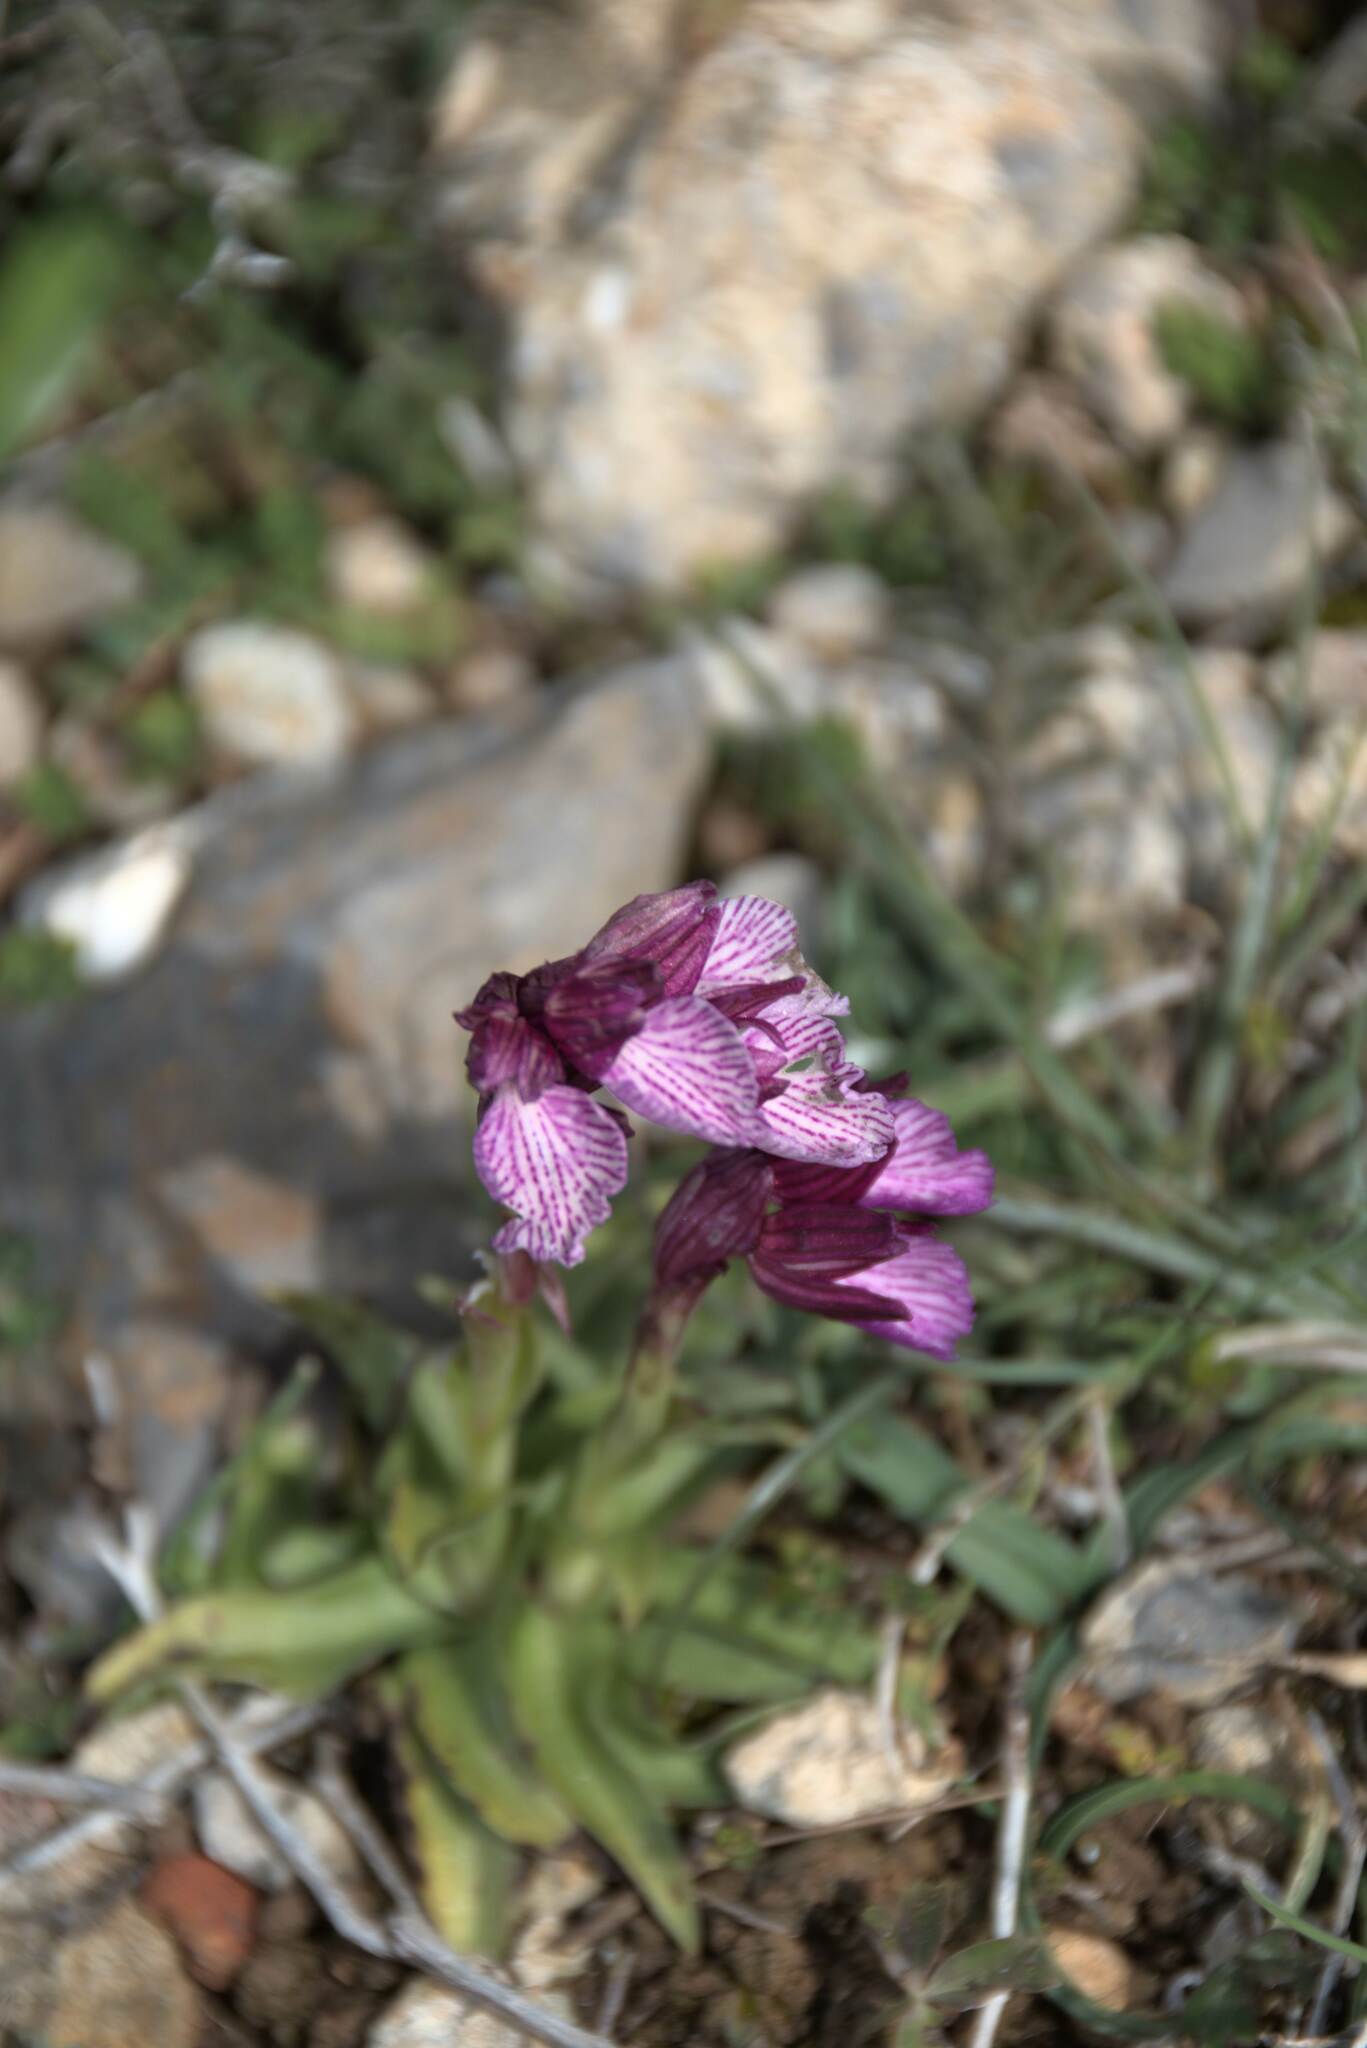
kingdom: Plantae
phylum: Tracheophyta
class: Liliopsida
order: Asparagales
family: Orchidaceae
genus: Anacamptis
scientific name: Anacamptis papilionacea
